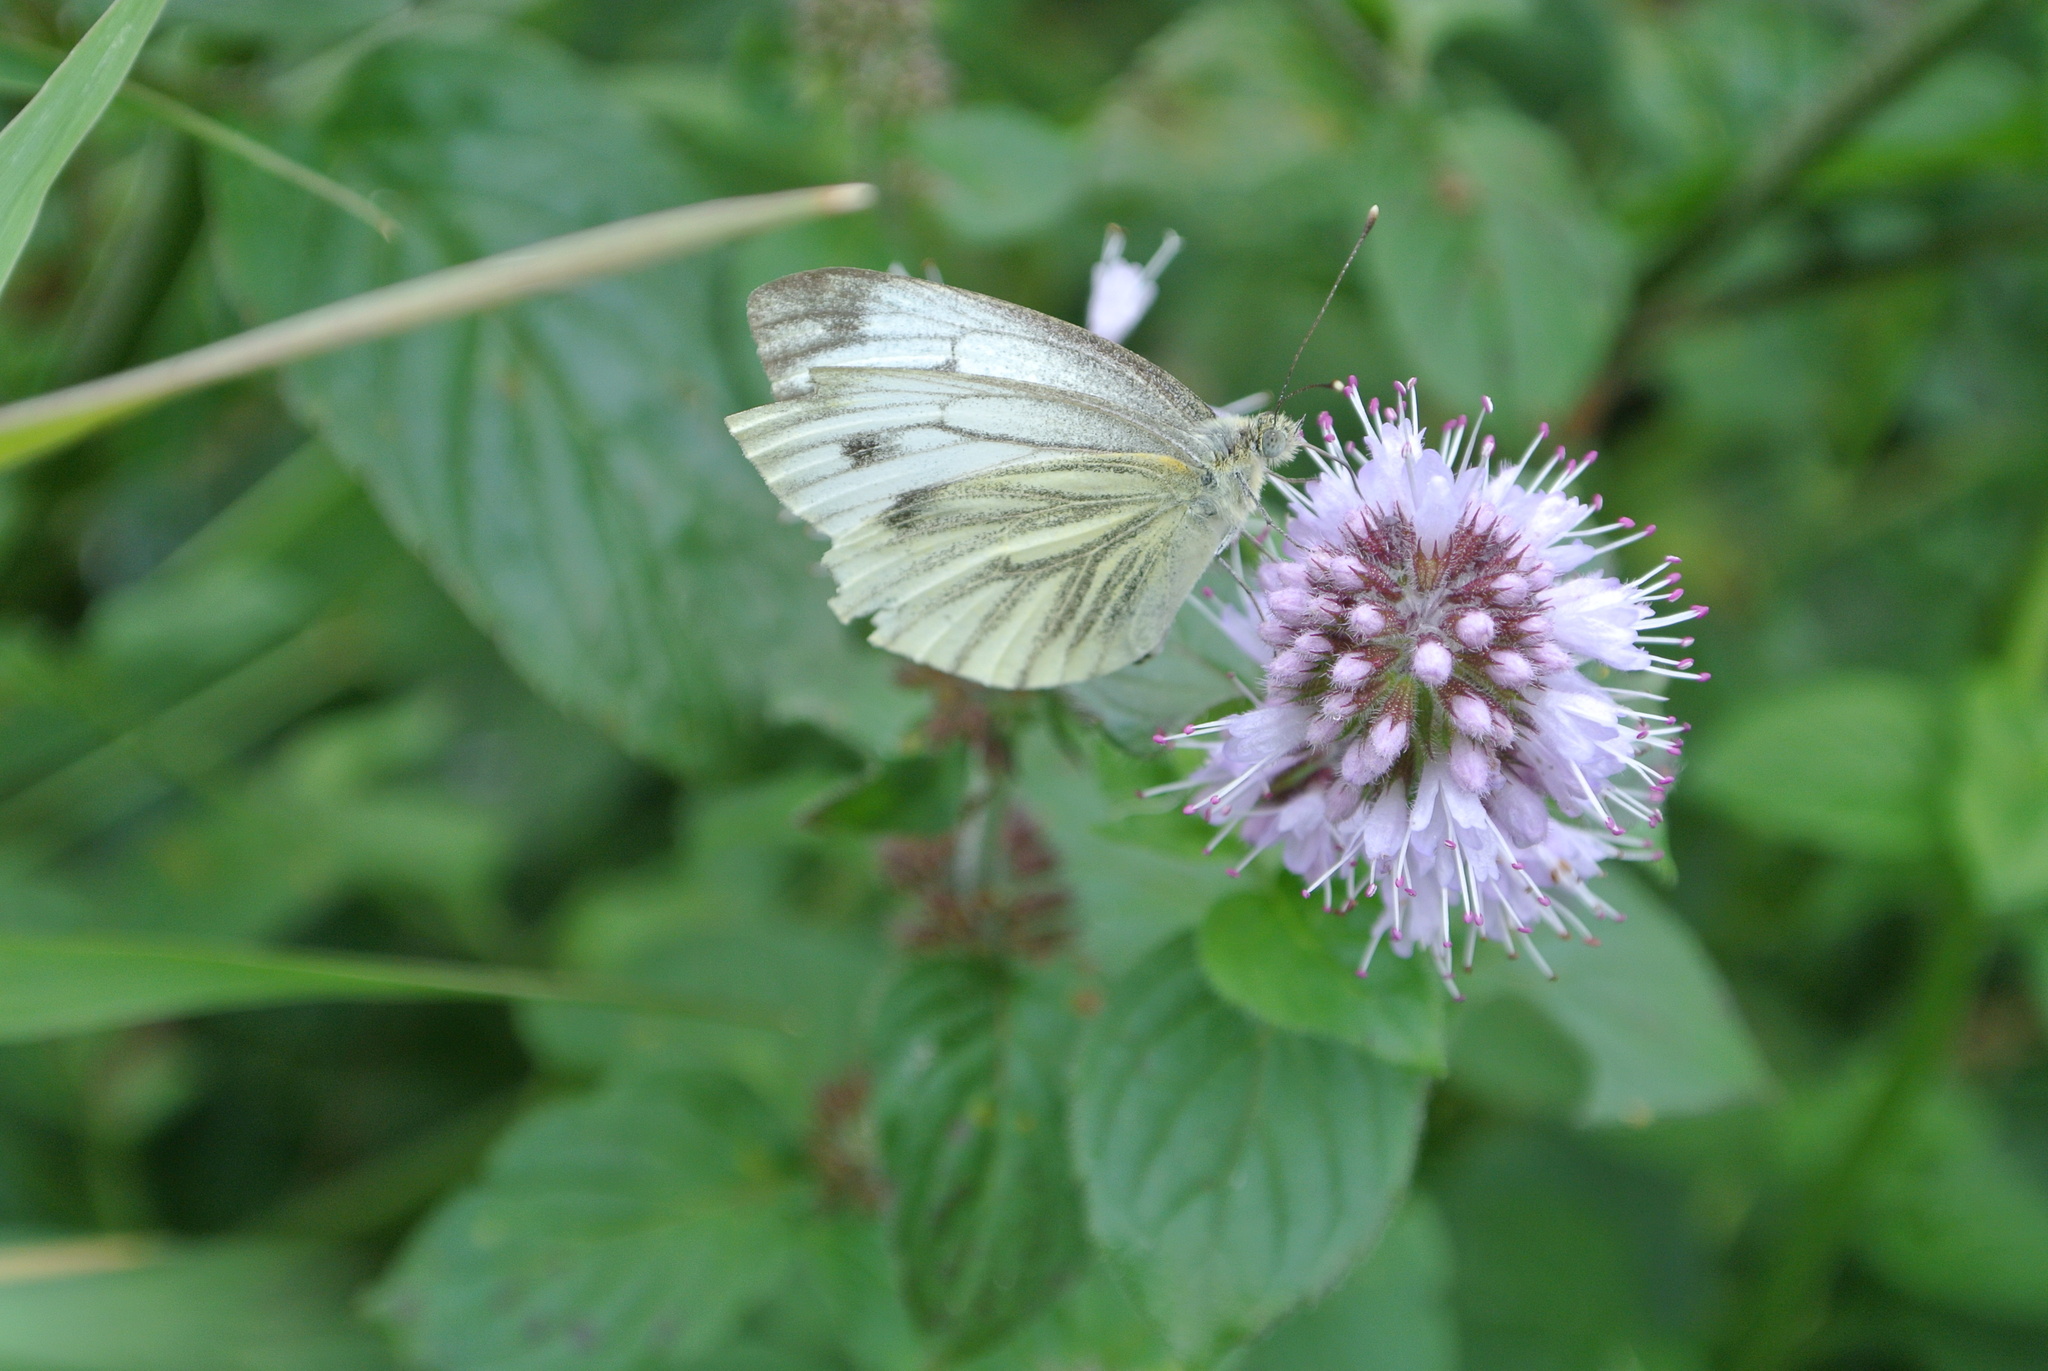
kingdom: Animalia
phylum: Arthropoda
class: Insecta
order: Lepidoptera
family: Pieridae
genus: Pieris
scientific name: Pieris napi
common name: Green-veined white
